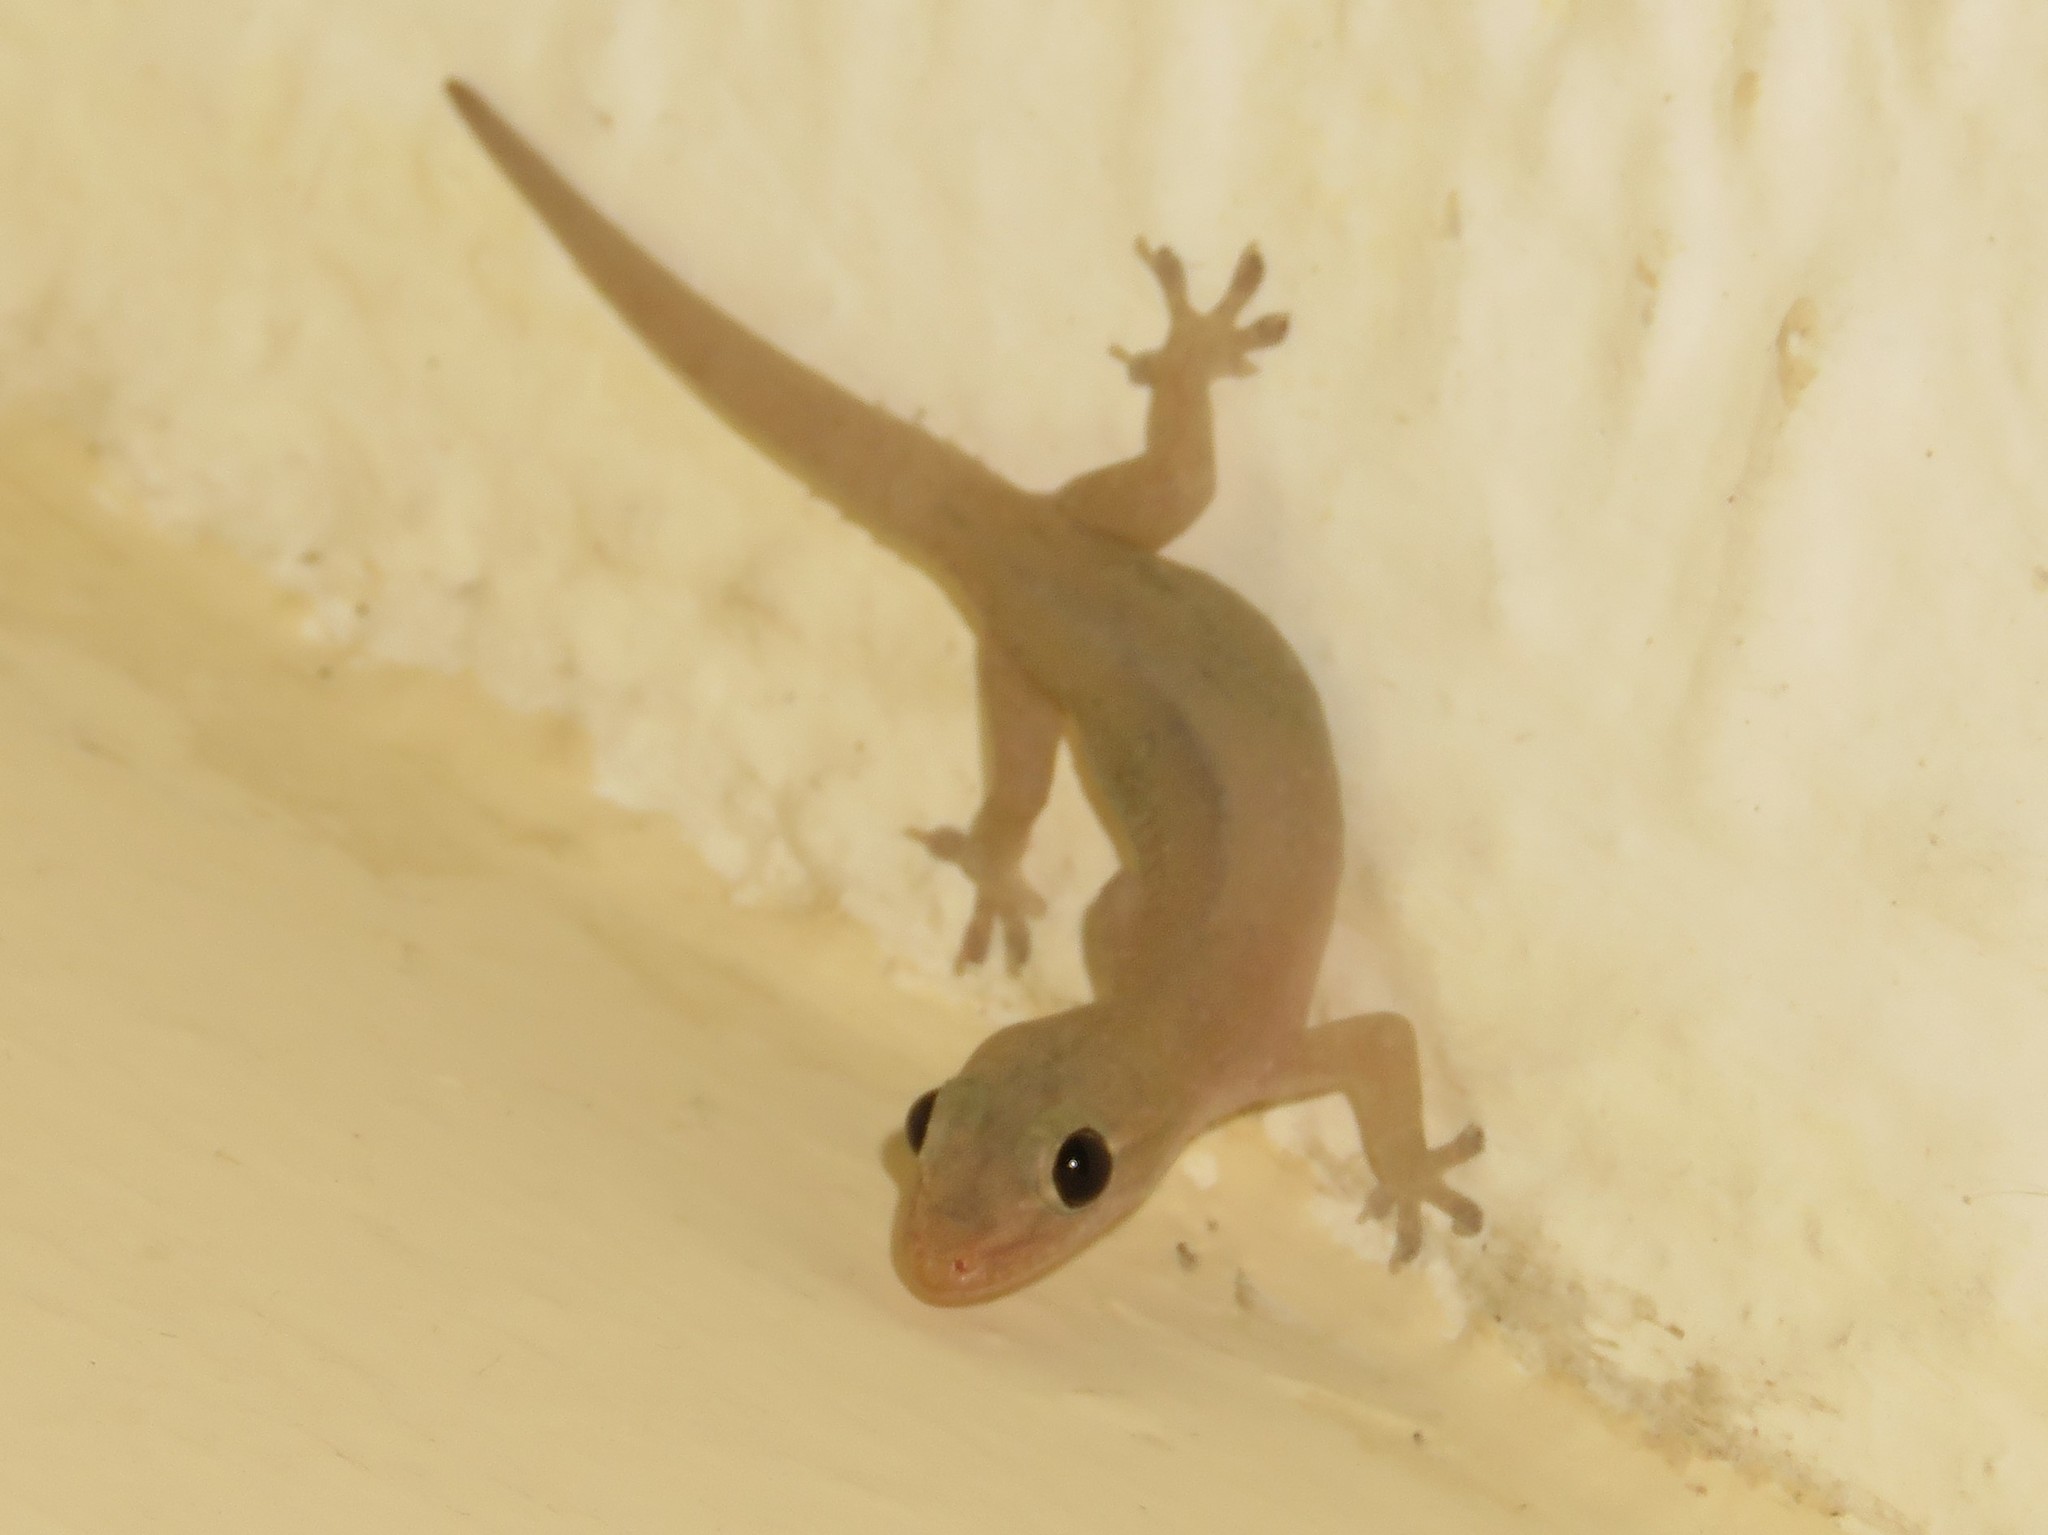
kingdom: Animalia
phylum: Chordata
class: Squamata
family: Gekkonidae
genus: Hemidactylus
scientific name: Hemidactylus frenatus
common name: Common house gecko
